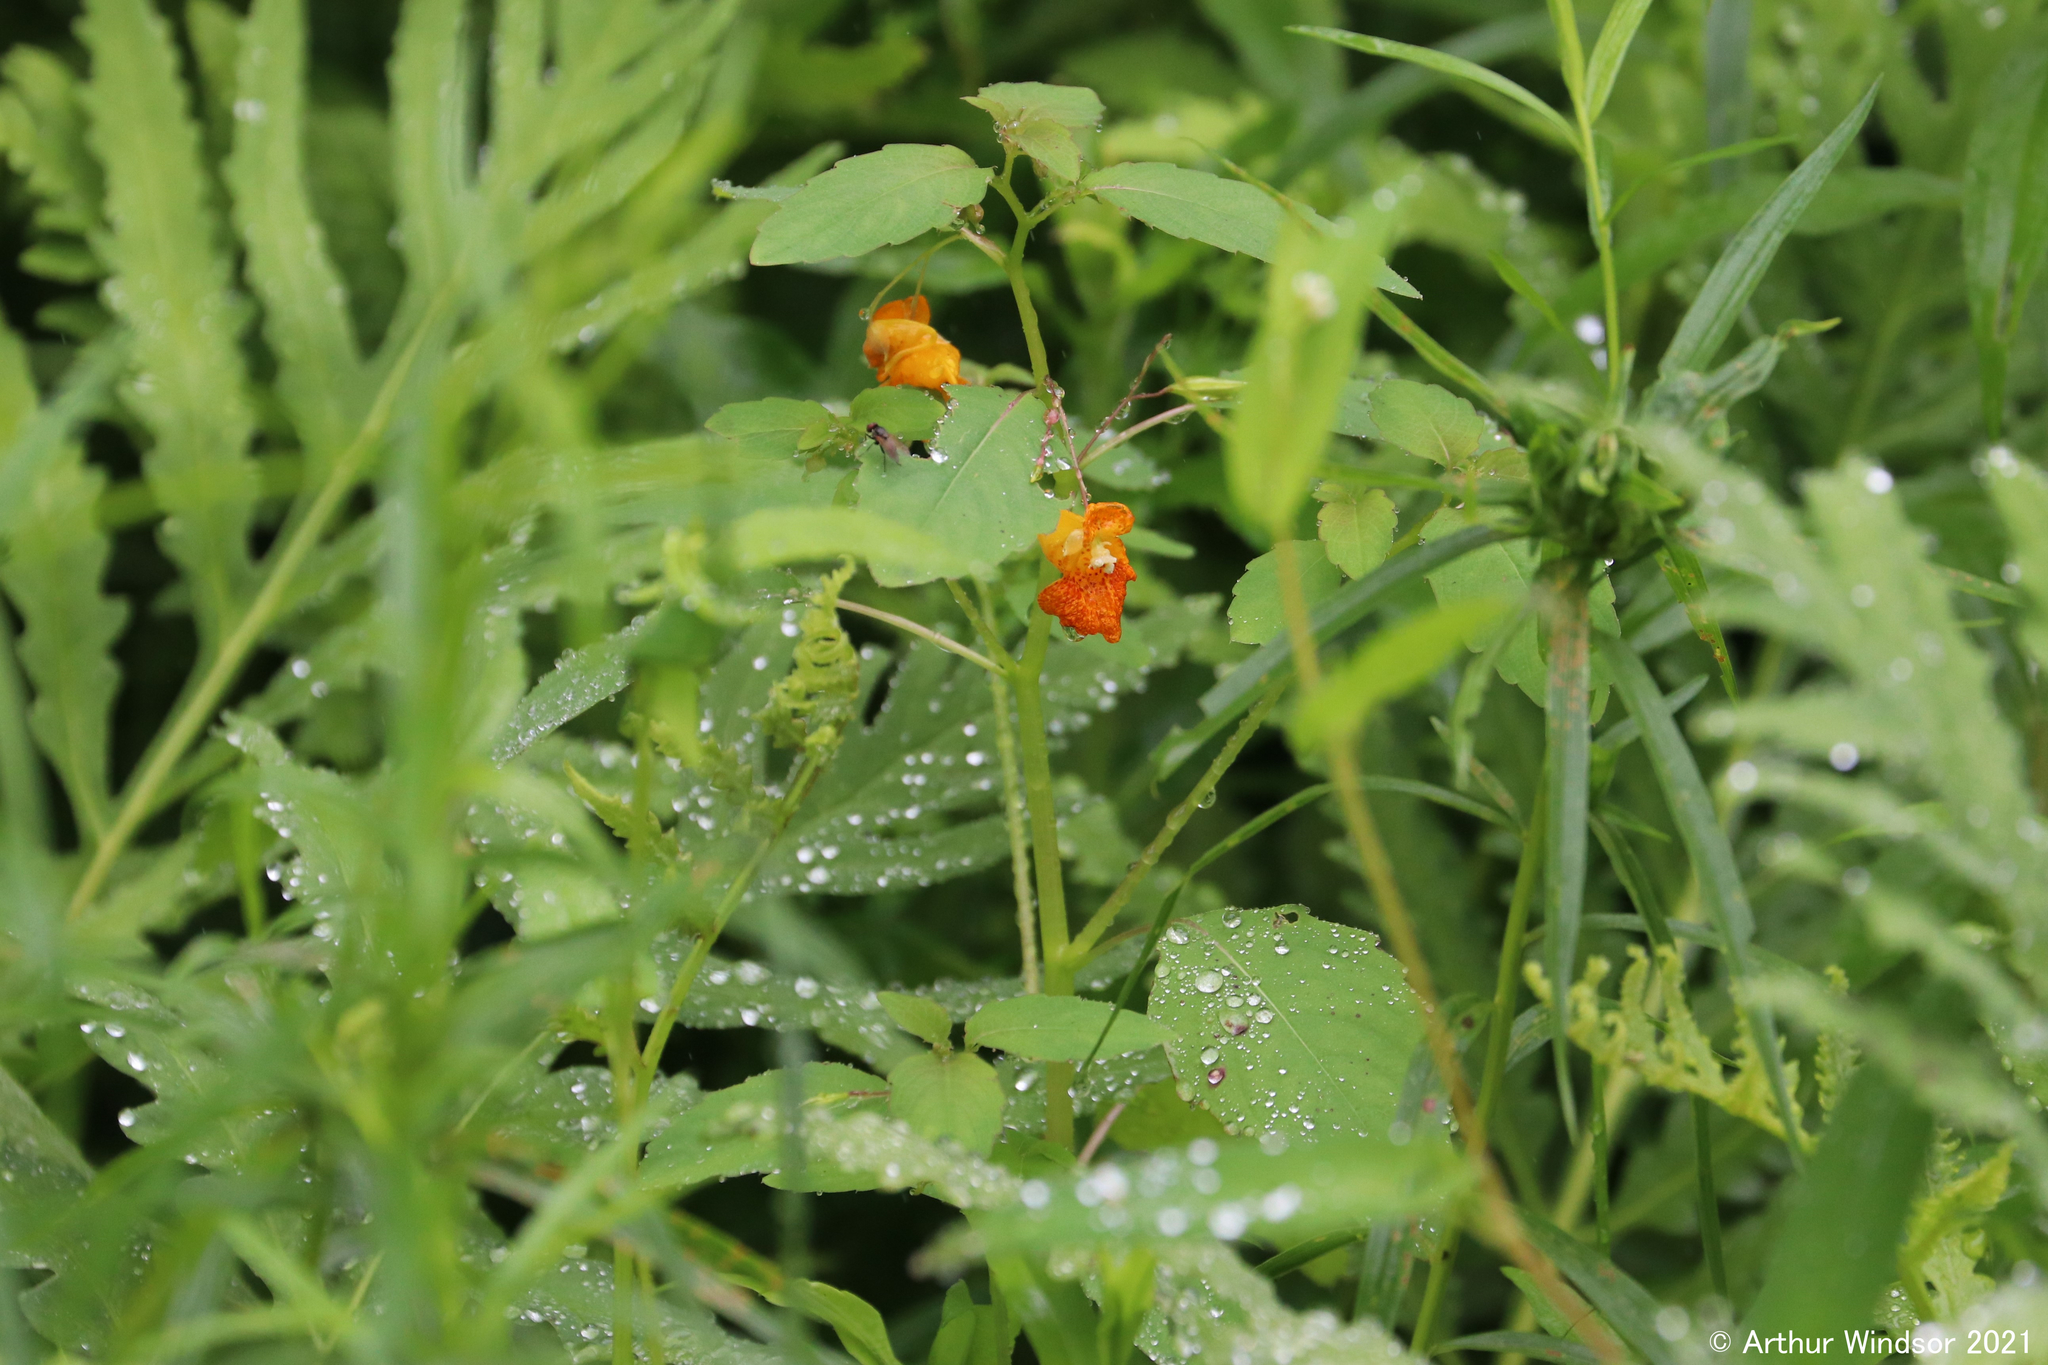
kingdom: Plantae
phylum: Tracheophyta
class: Magnoliopsida
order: Ericales
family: Balsaminaceae
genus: Impatiens
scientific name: Impatiens capensis
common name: Orange balsam
